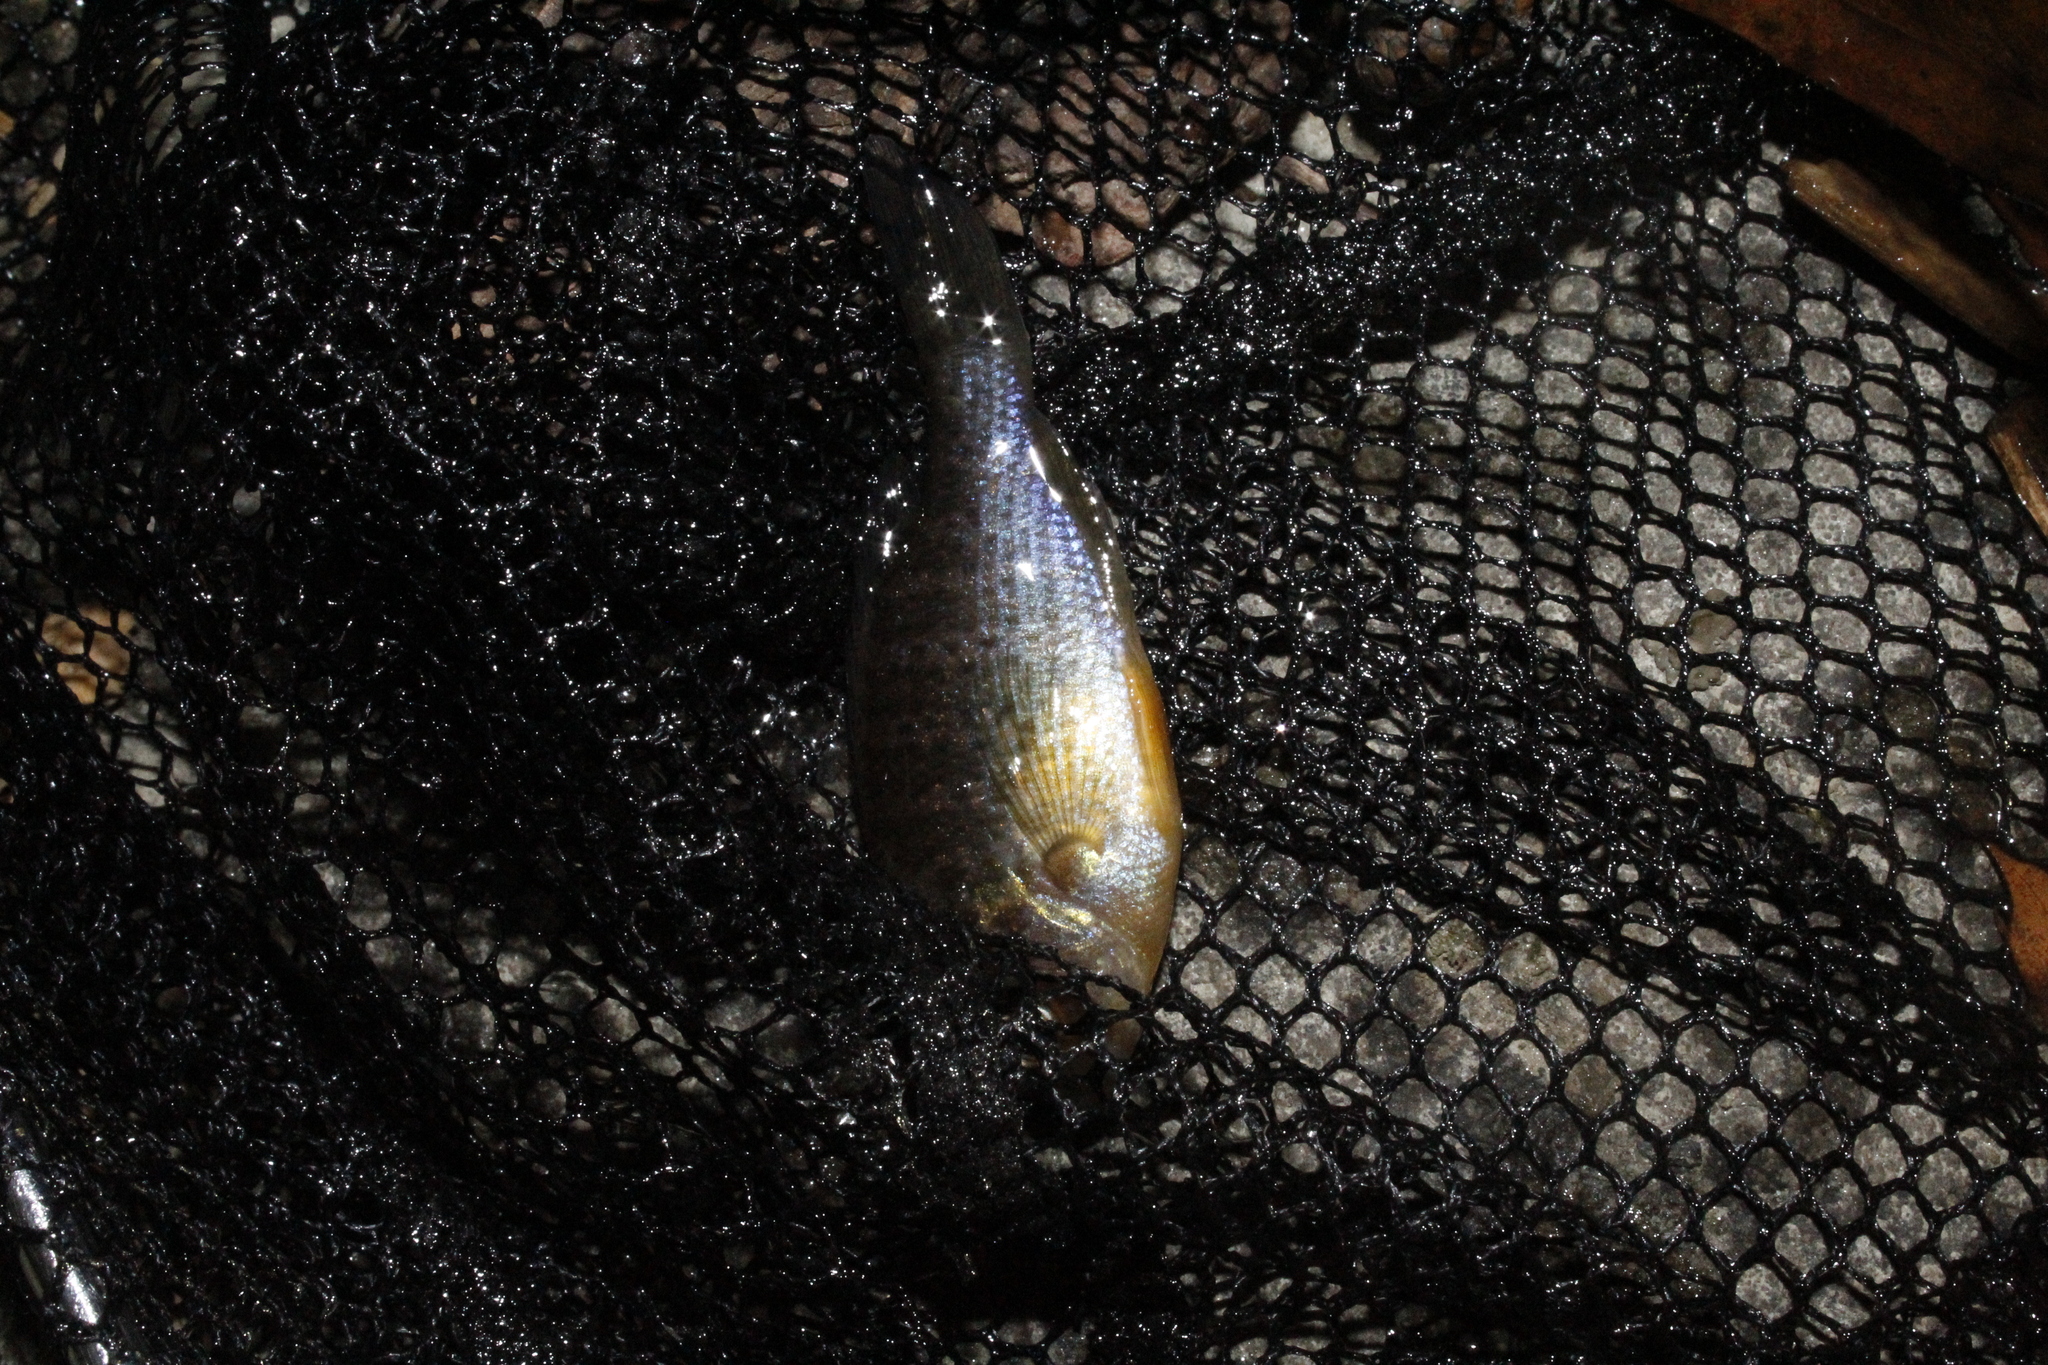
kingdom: Animalia
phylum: Chordata
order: Perciformes
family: Centrarchidae
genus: Lepomis
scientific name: Lepomis gibbosus
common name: Pumpkinseed
